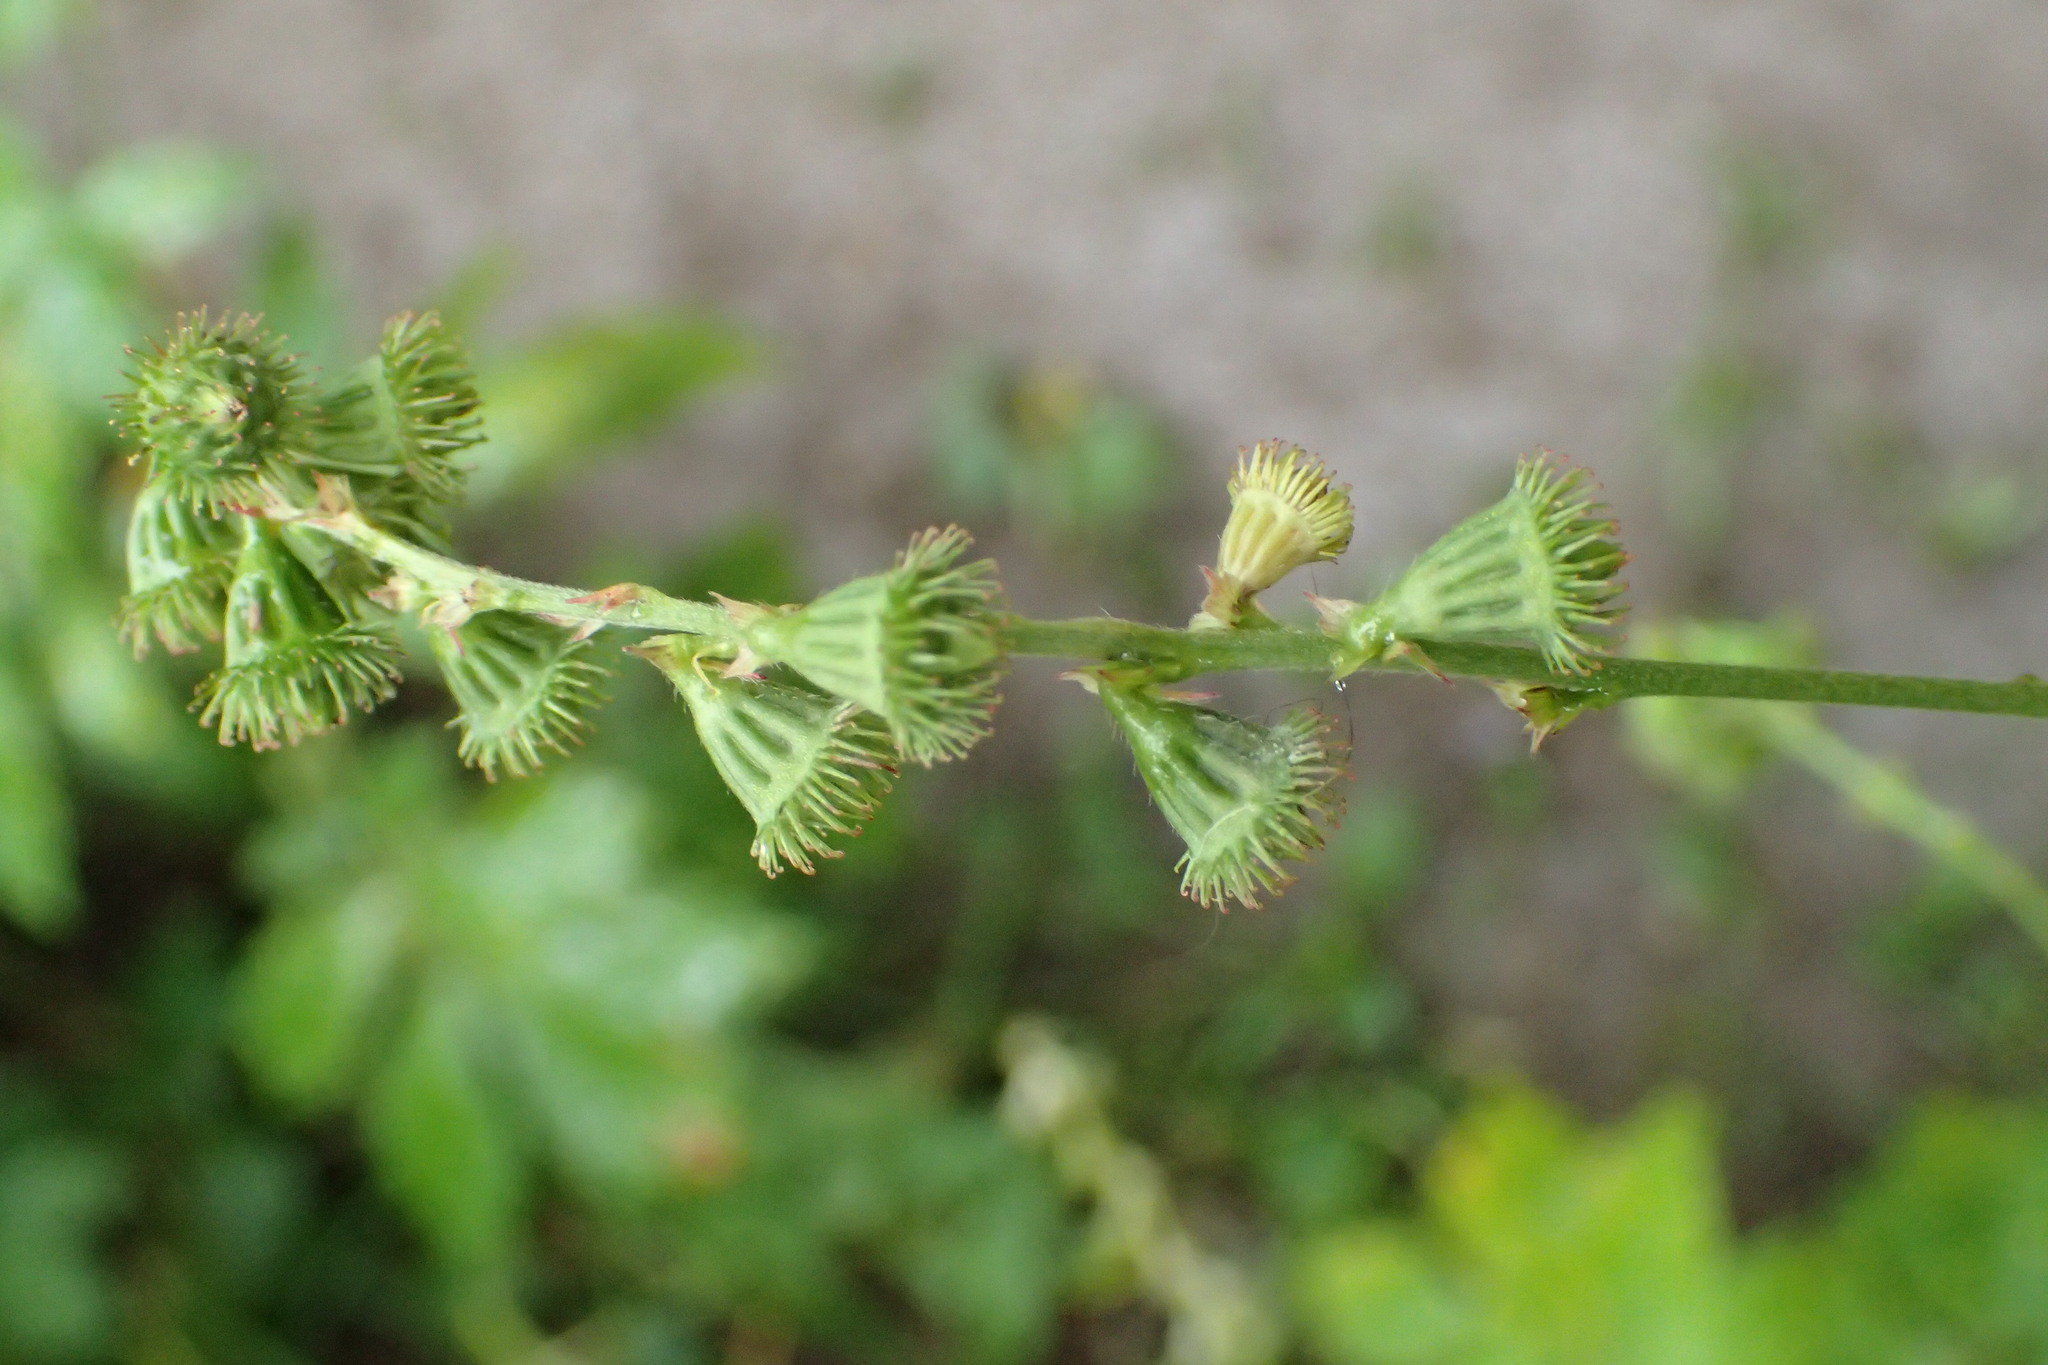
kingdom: Plantae
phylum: Tracheophyta
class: Magnoliopsida
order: Rosales
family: Rosaceae
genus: Agrimonia
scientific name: Agrimonia striata
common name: Britton's agrimony
